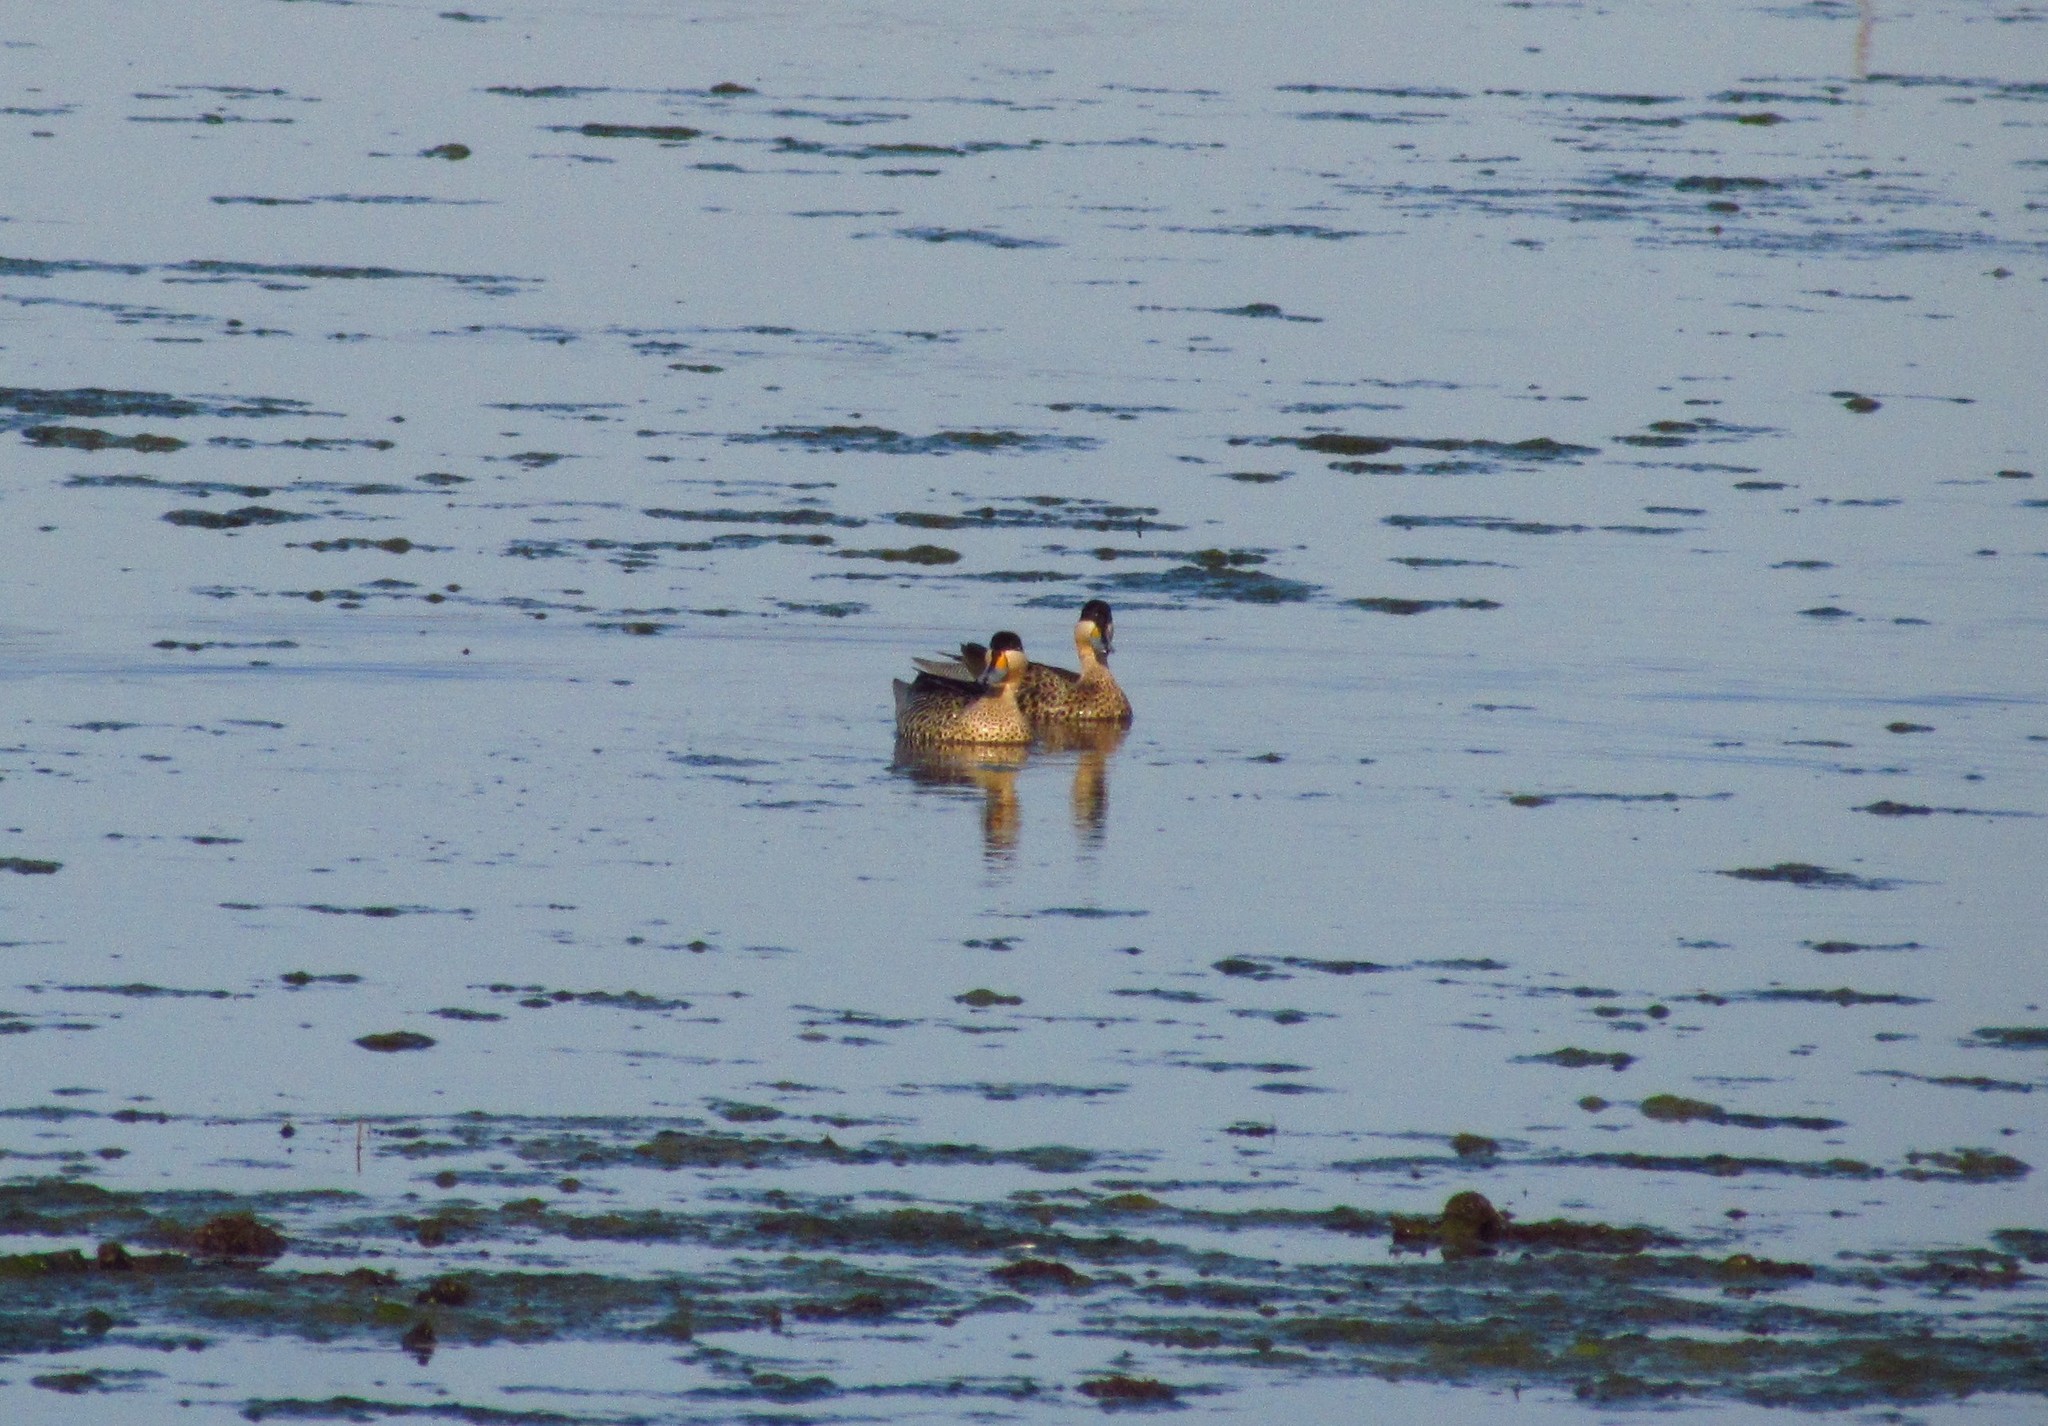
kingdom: Animalia
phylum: Chordata
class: Aves
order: Anseriformes
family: Anatidae
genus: Spatula
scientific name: Spatula versicolor
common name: Silver teal
